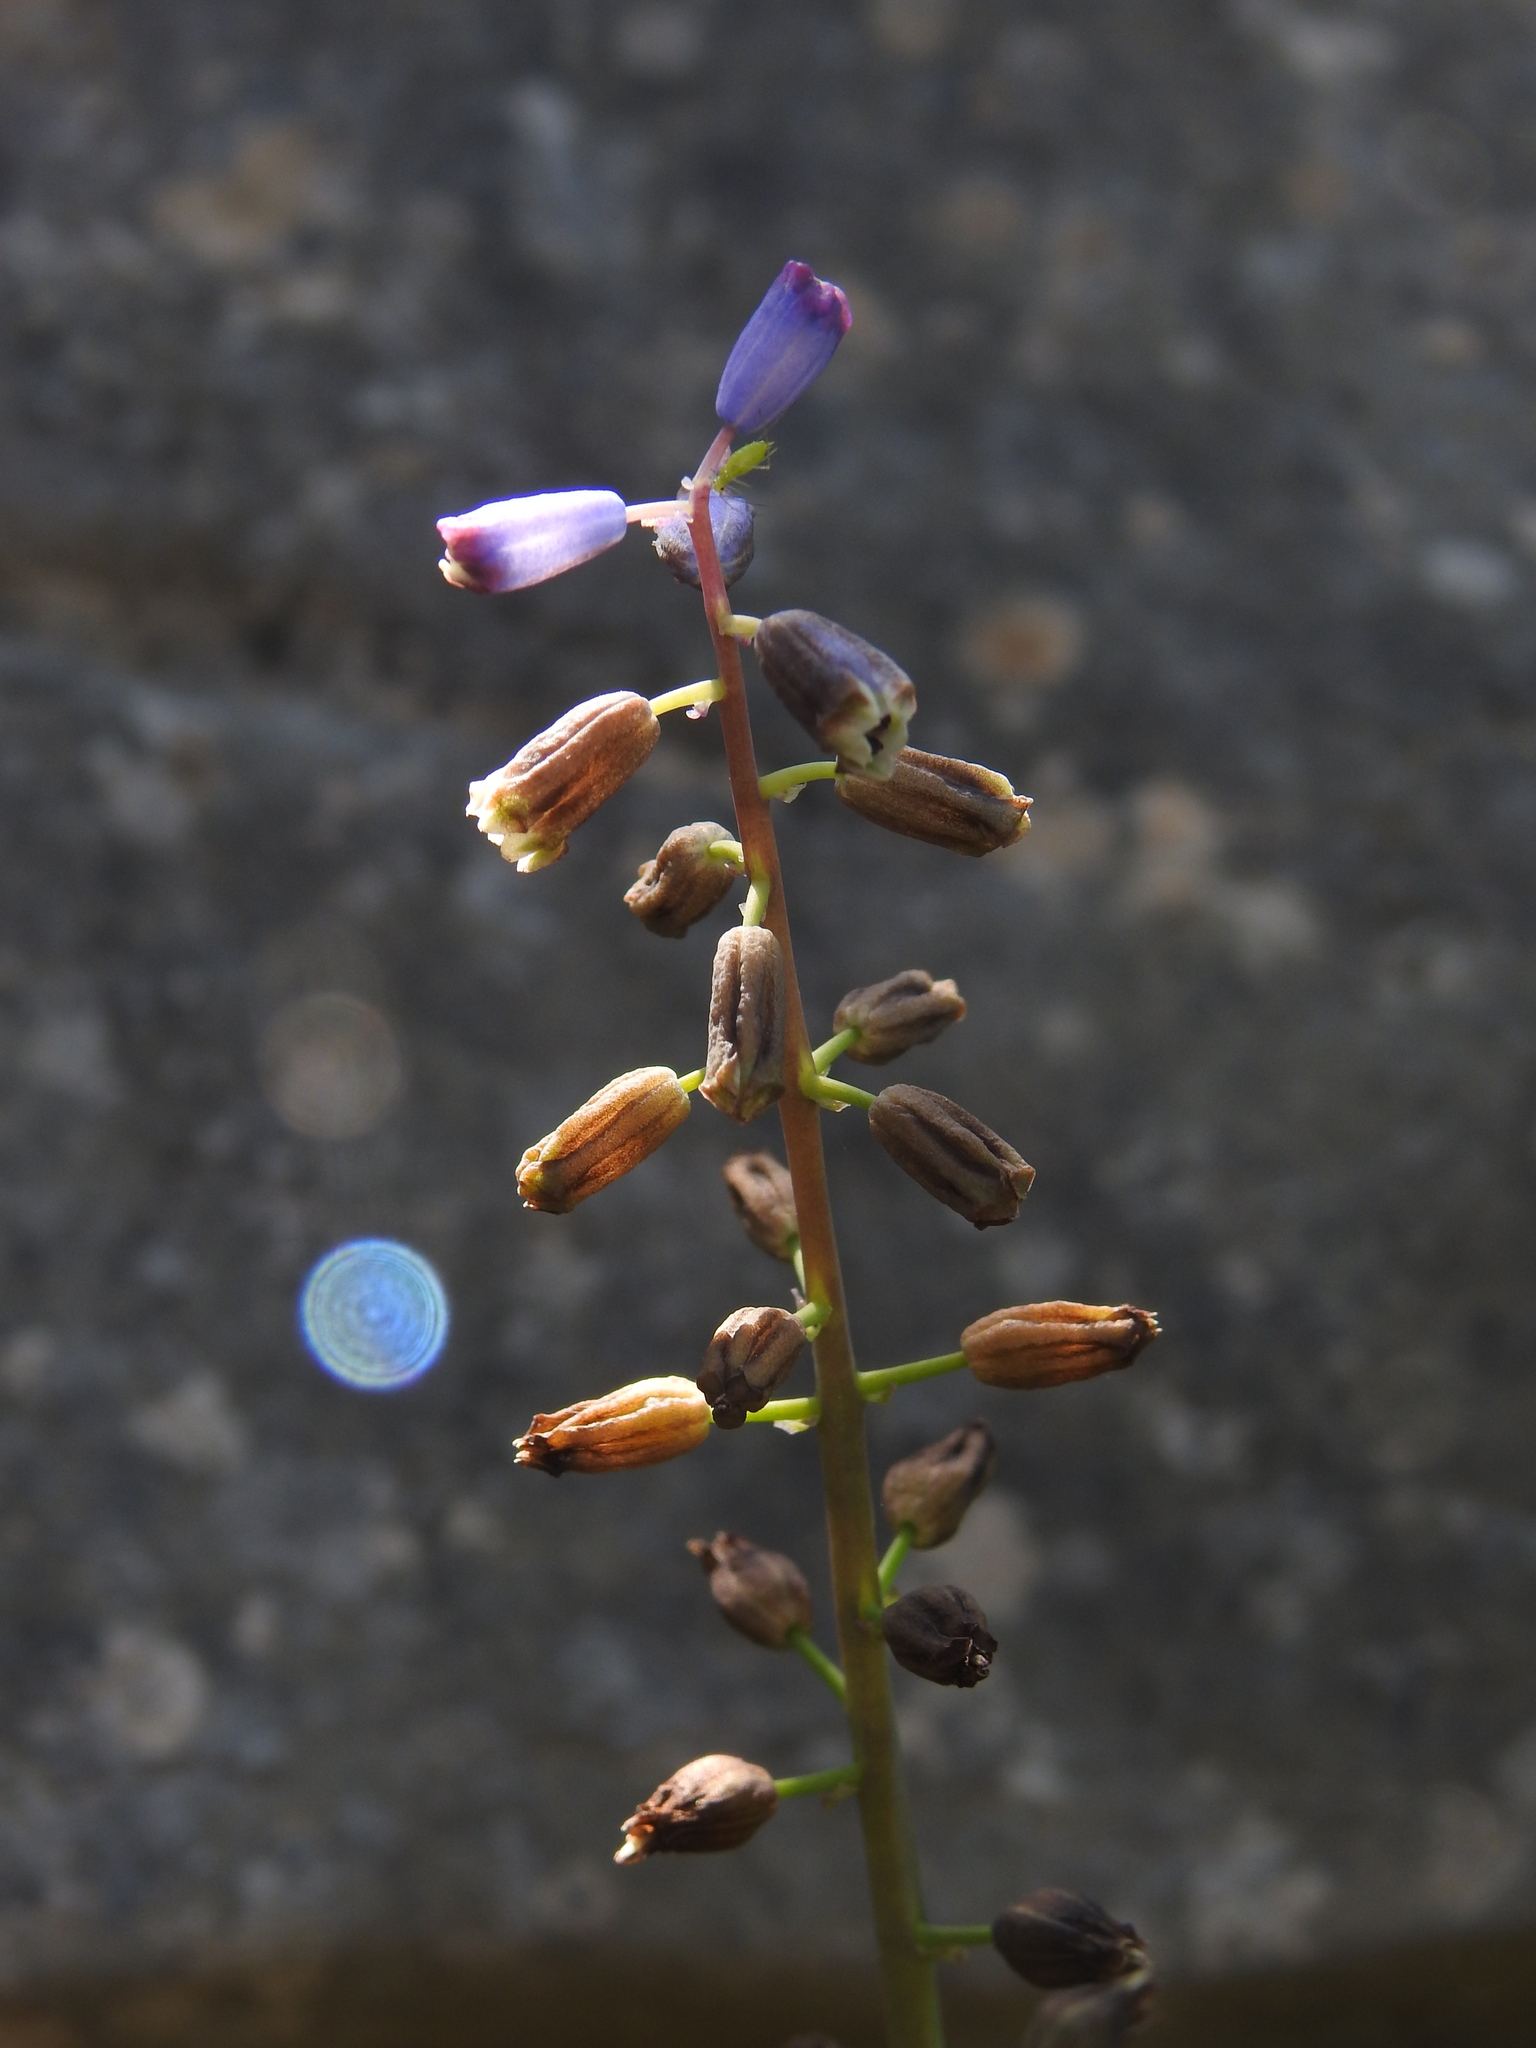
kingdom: Plantae
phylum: Tracheophyta
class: Liliopsida
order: Asparagales
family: Asparagaceae
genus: Bellevalia
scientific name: Bellevalia dubia
